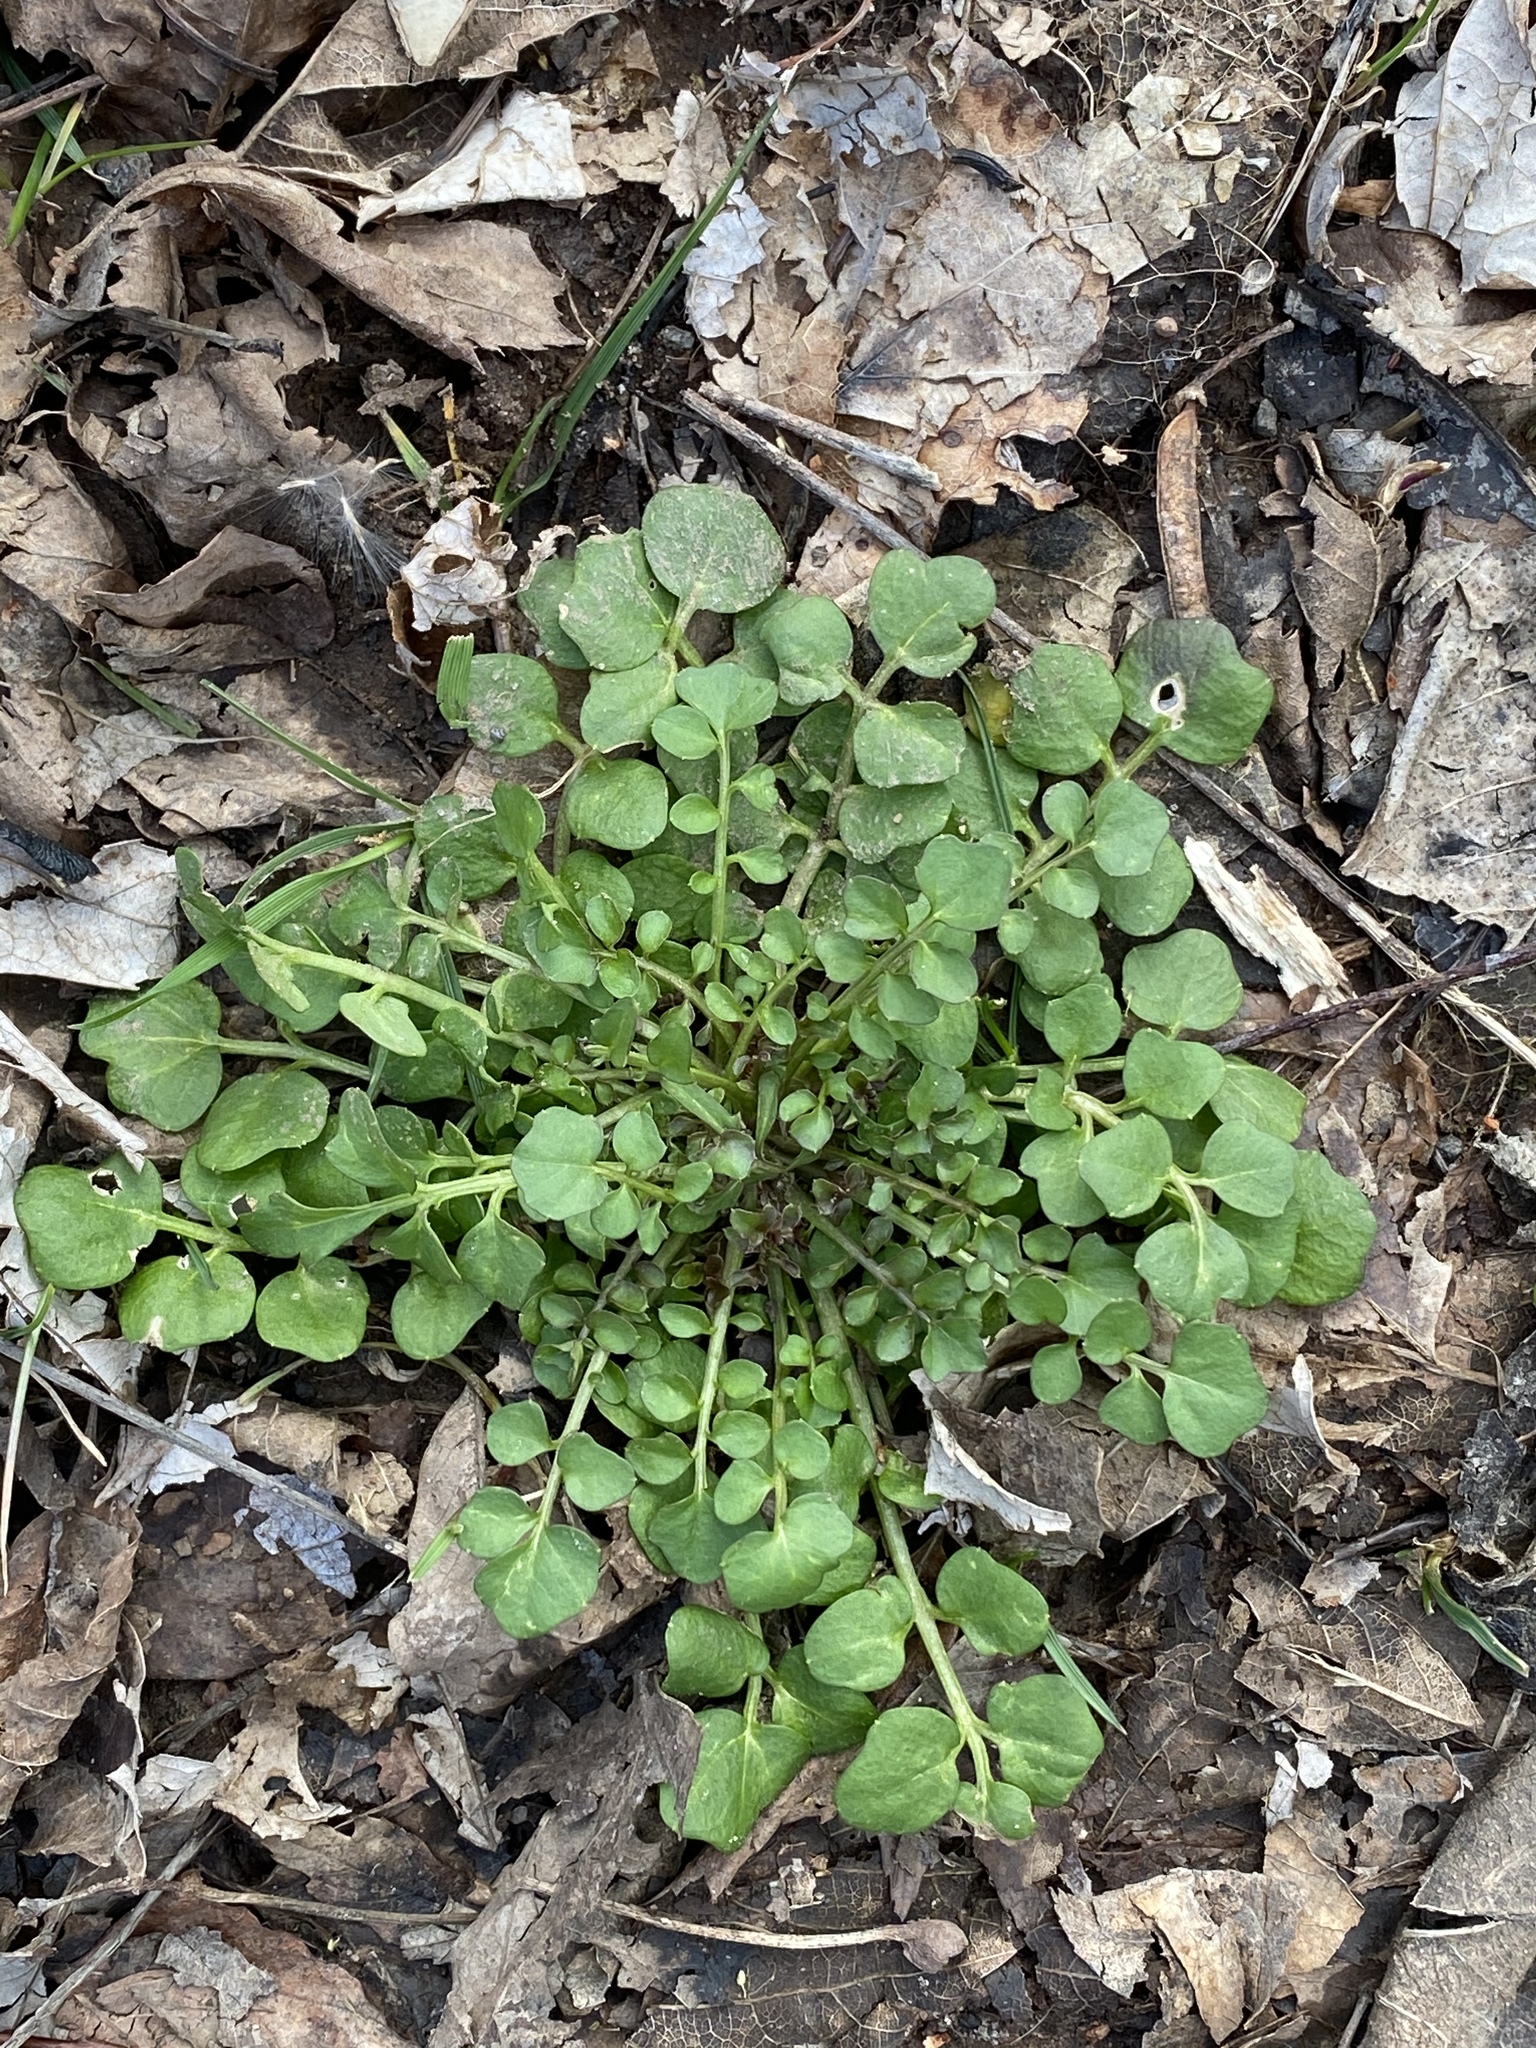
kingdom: Plantae
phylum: Tracheophyta
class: Magnoliopsida
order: Brassicales
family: Brassicaceae
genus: Cardamine
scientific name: Cardamine hirsuta
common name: Hairy bittercress
